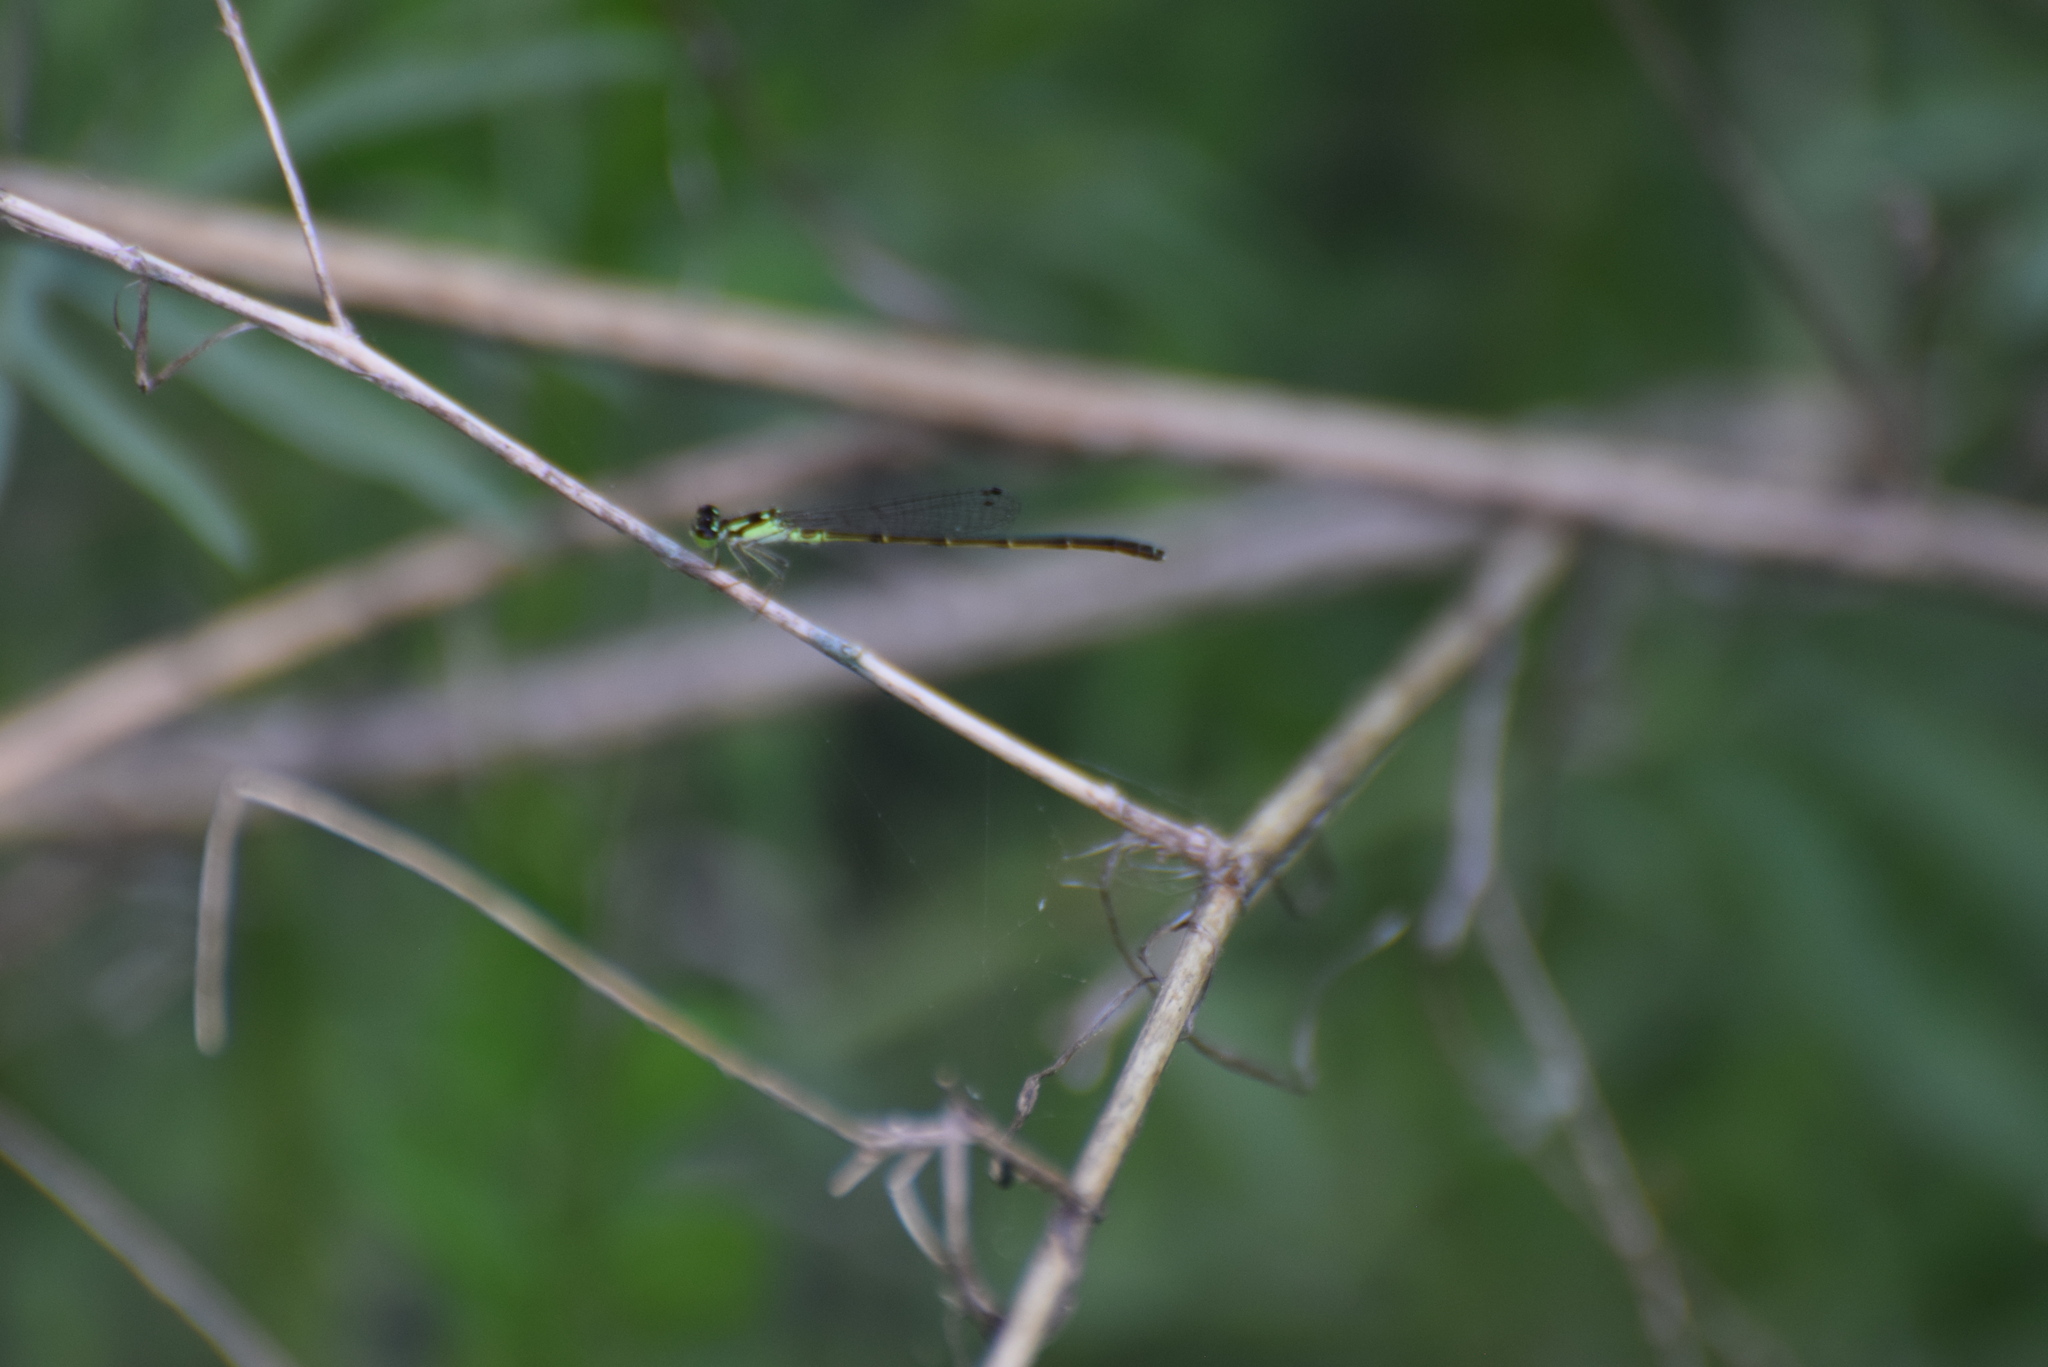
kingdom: Animalia
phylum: Arthropoda
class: Insecta
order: Odonata
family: Coenagrionidae
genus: Ischnura
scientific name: Ischnura posita
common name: Fragile forktail
